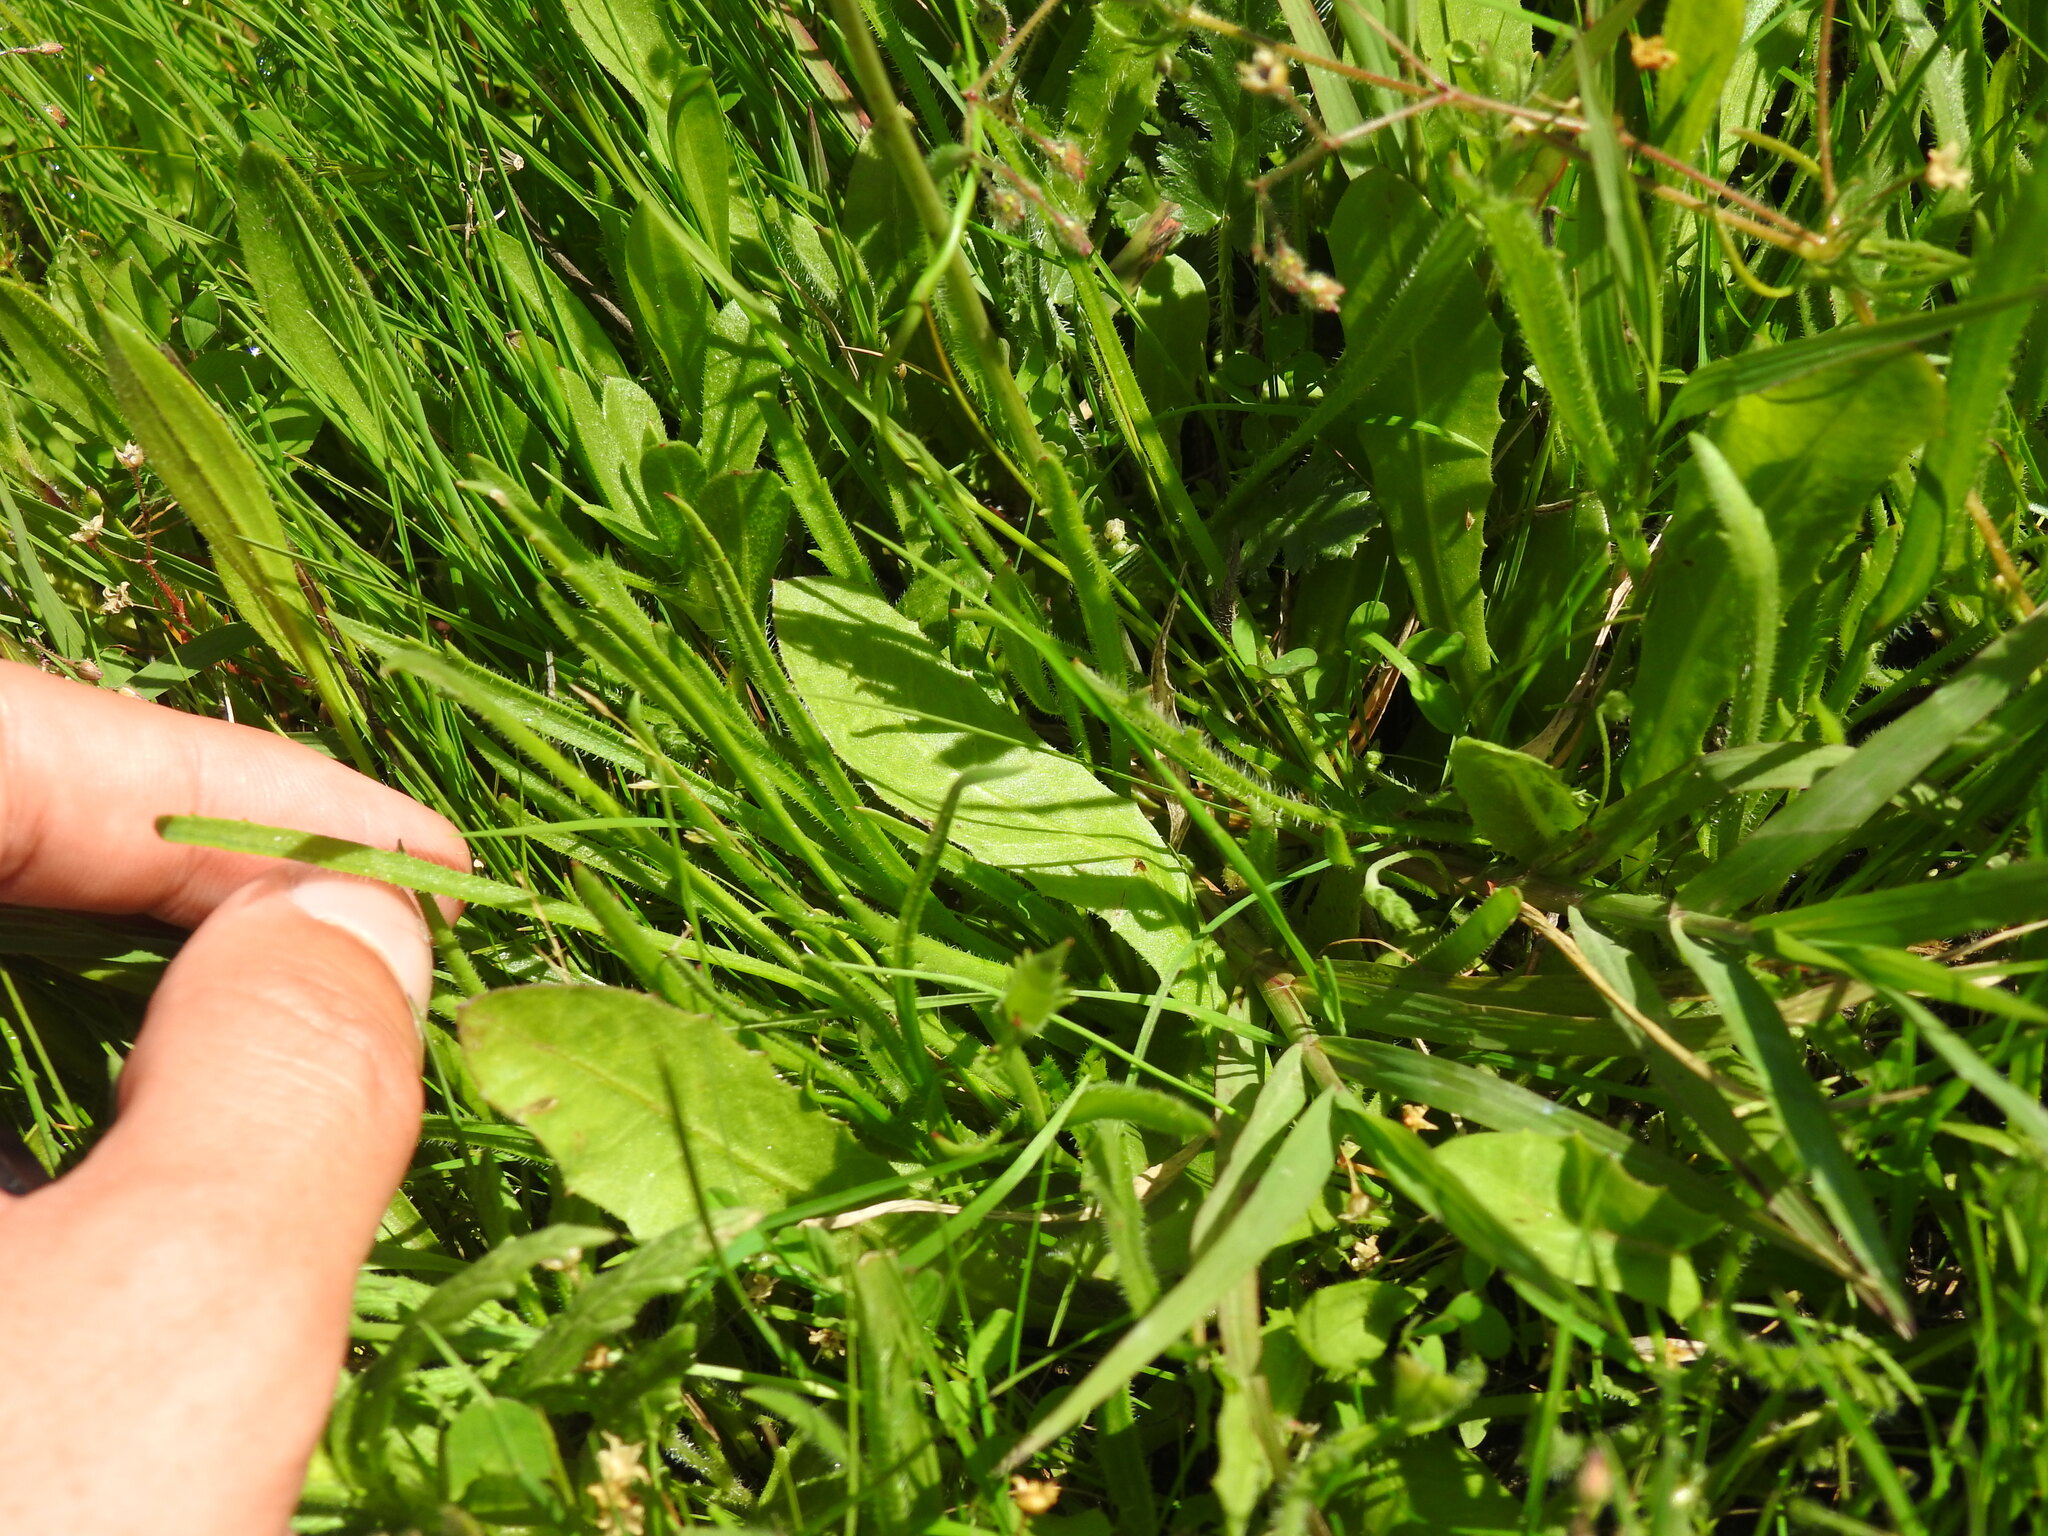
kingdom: Plantae
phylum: Tracheophyta
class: Magnoliopsida
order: Asterales
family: Asteraceae
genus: Hypochaeris
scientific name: Hypochaeris glabra
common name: Smooth catsear
